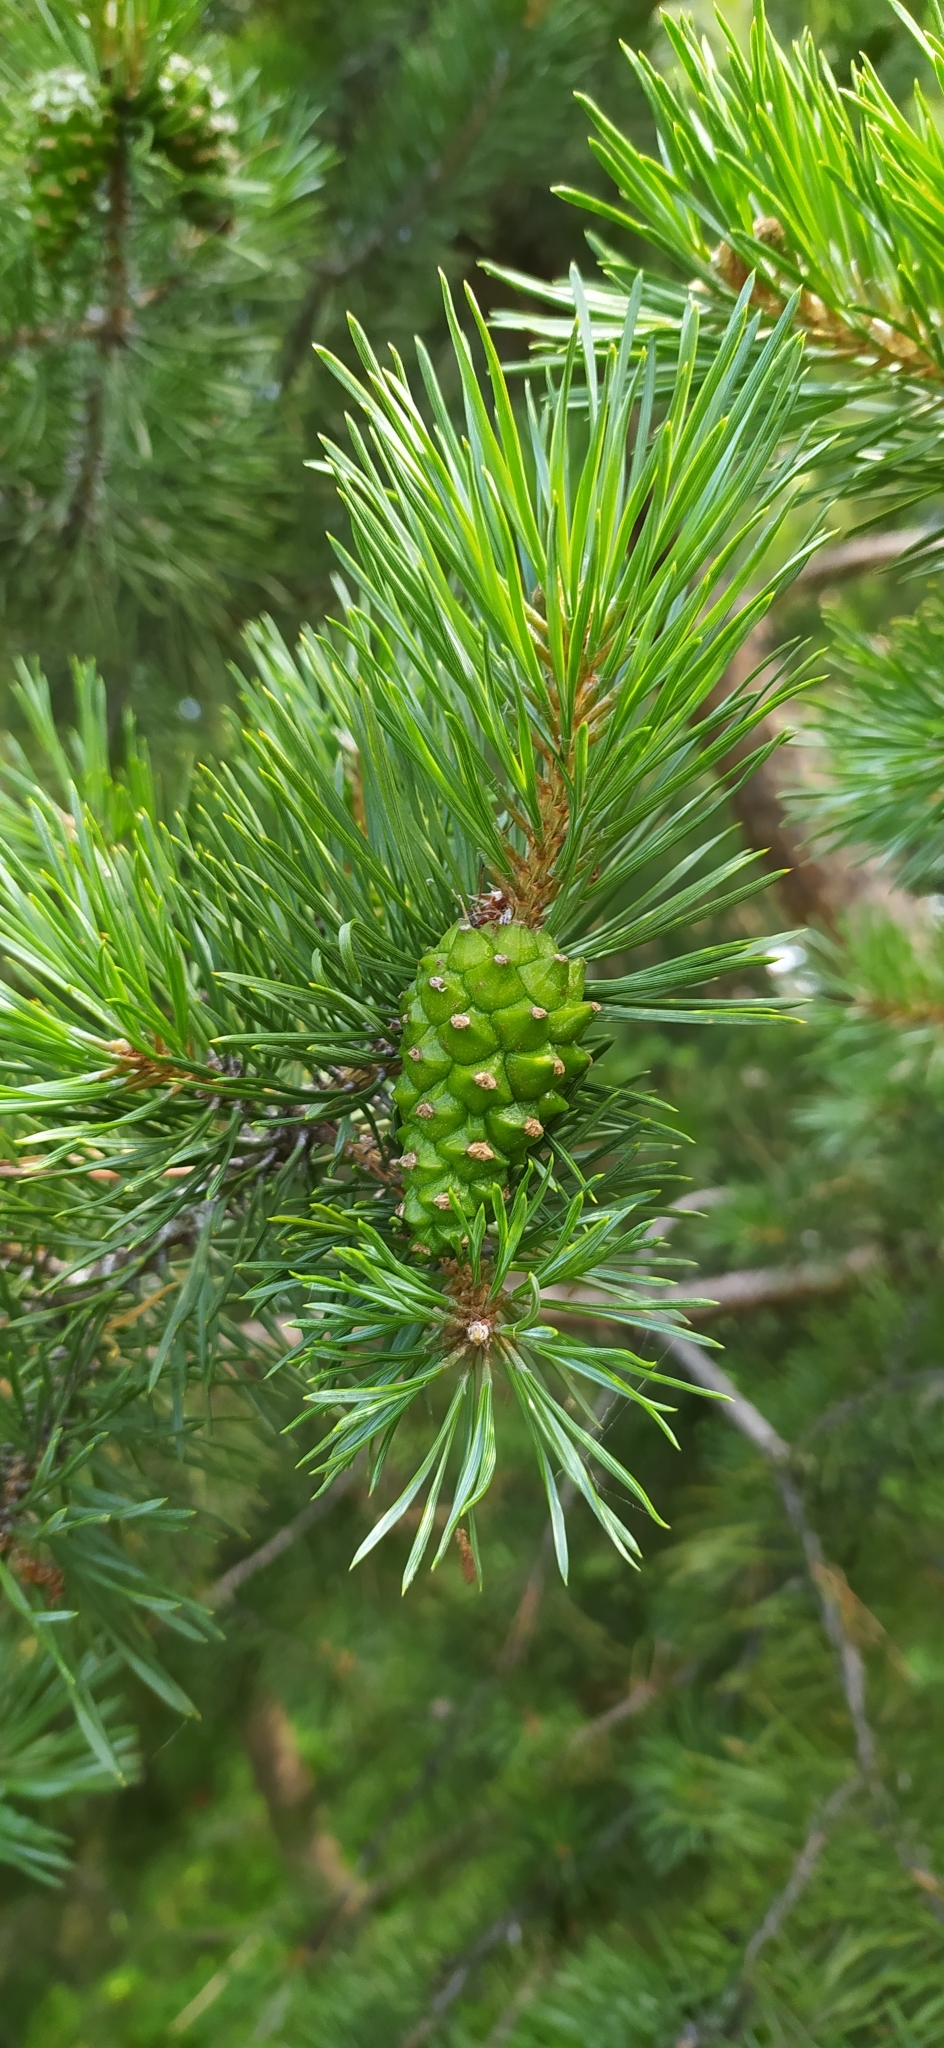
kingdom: Plantae
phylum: Tracheophyta
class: Pinopsida
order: Pinales
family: Pinaceae
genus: Pinus
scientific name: Pinus sylvestris
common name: Scots pine
